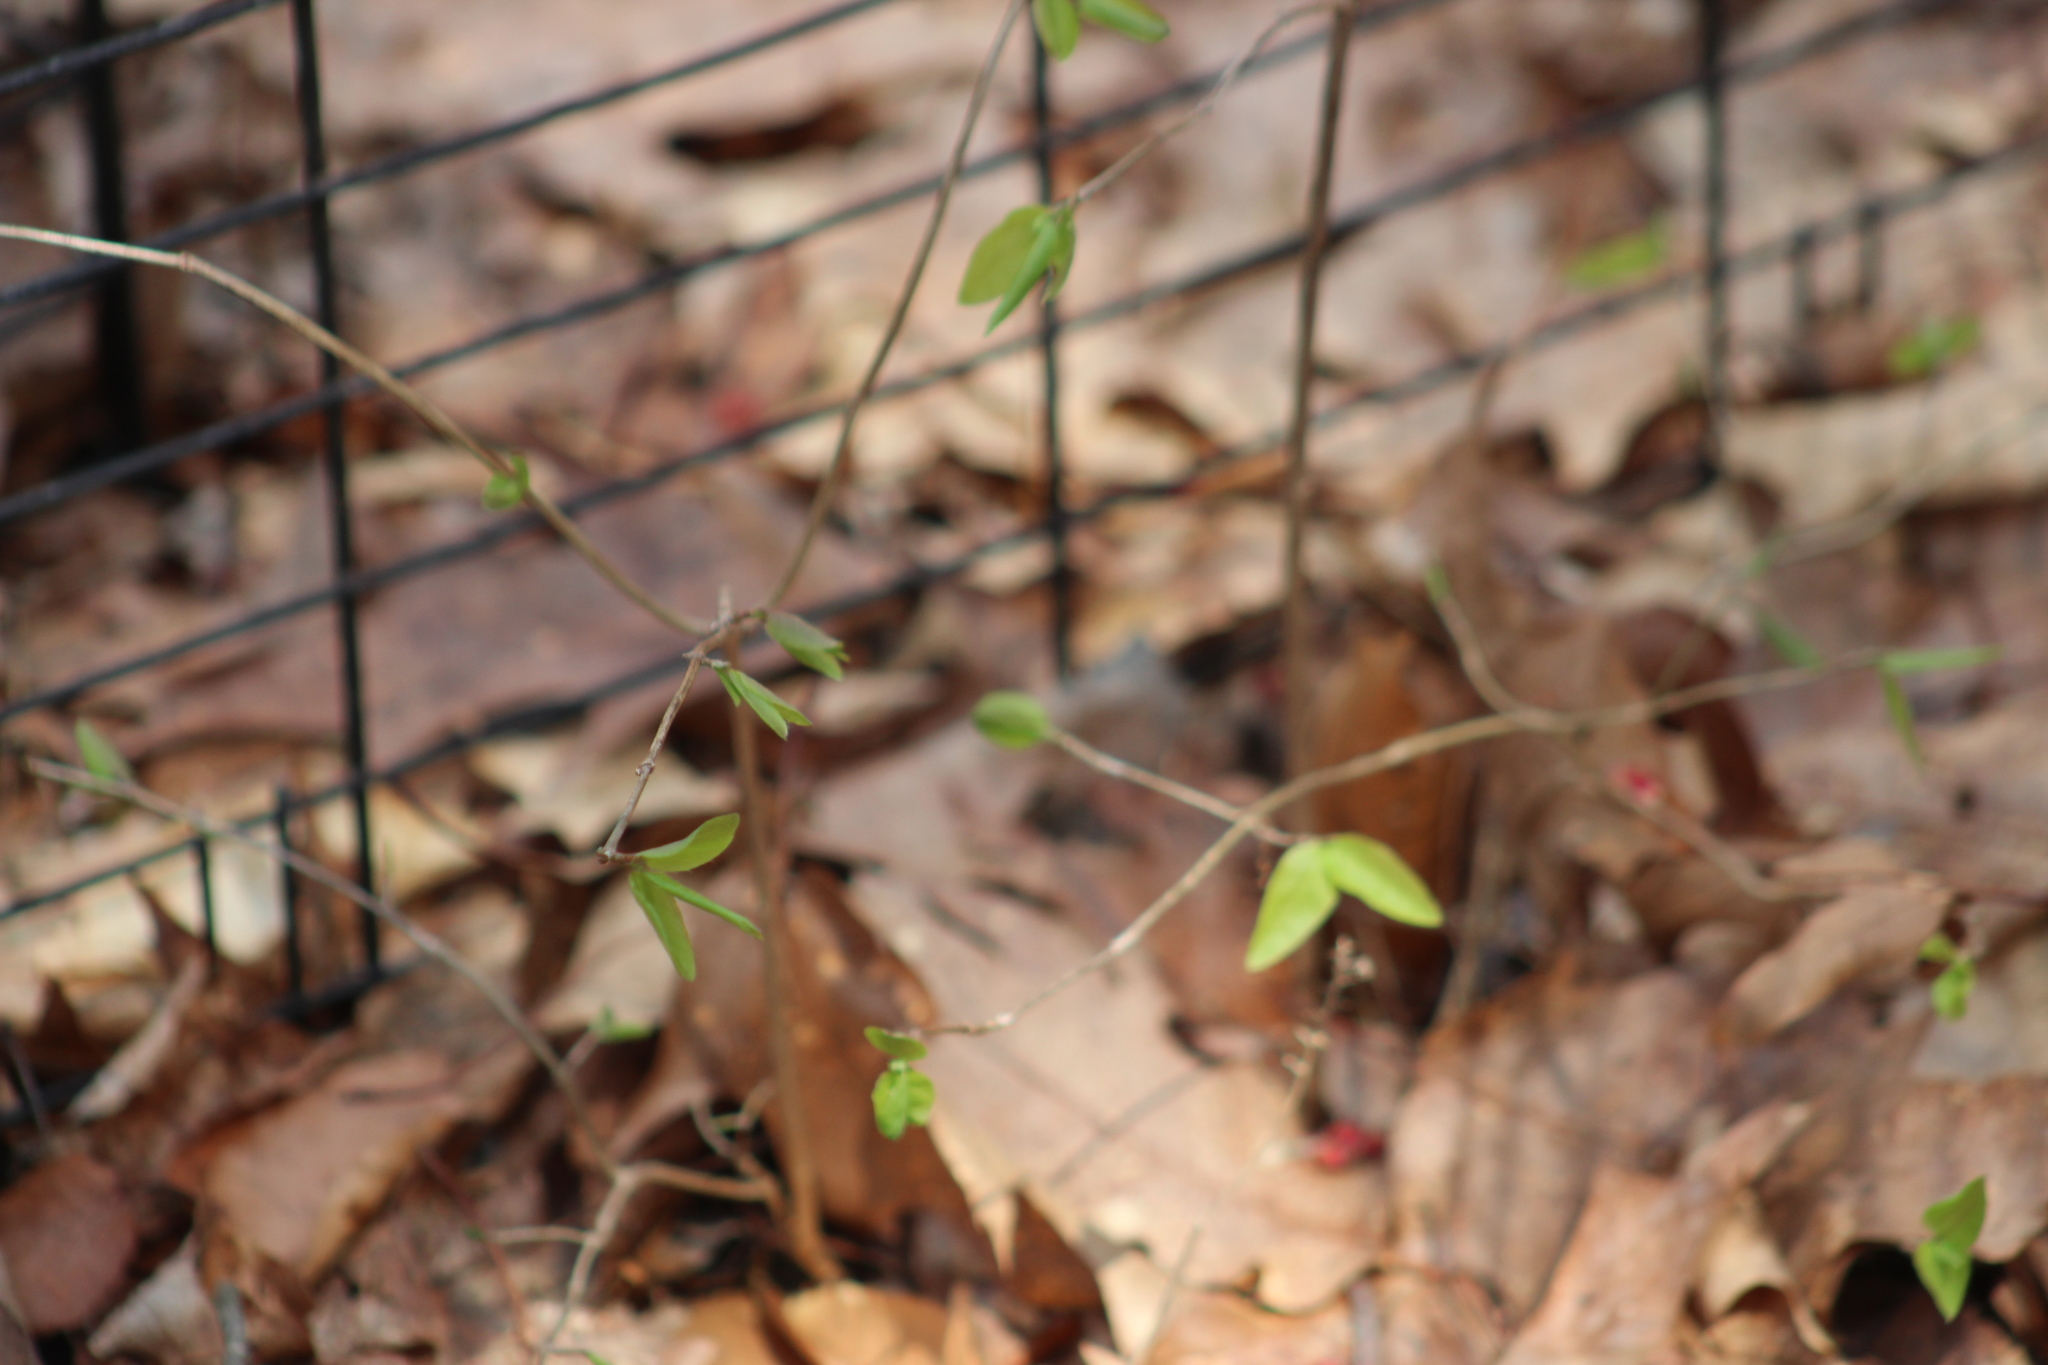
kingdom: Plantae
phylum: Tracheophyta
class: Magnoliopsida
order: Dipsacales
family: Caprifoliaceae
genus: Lonicera
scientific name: Lonicera canadensis
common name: American fly-honeysuckle
